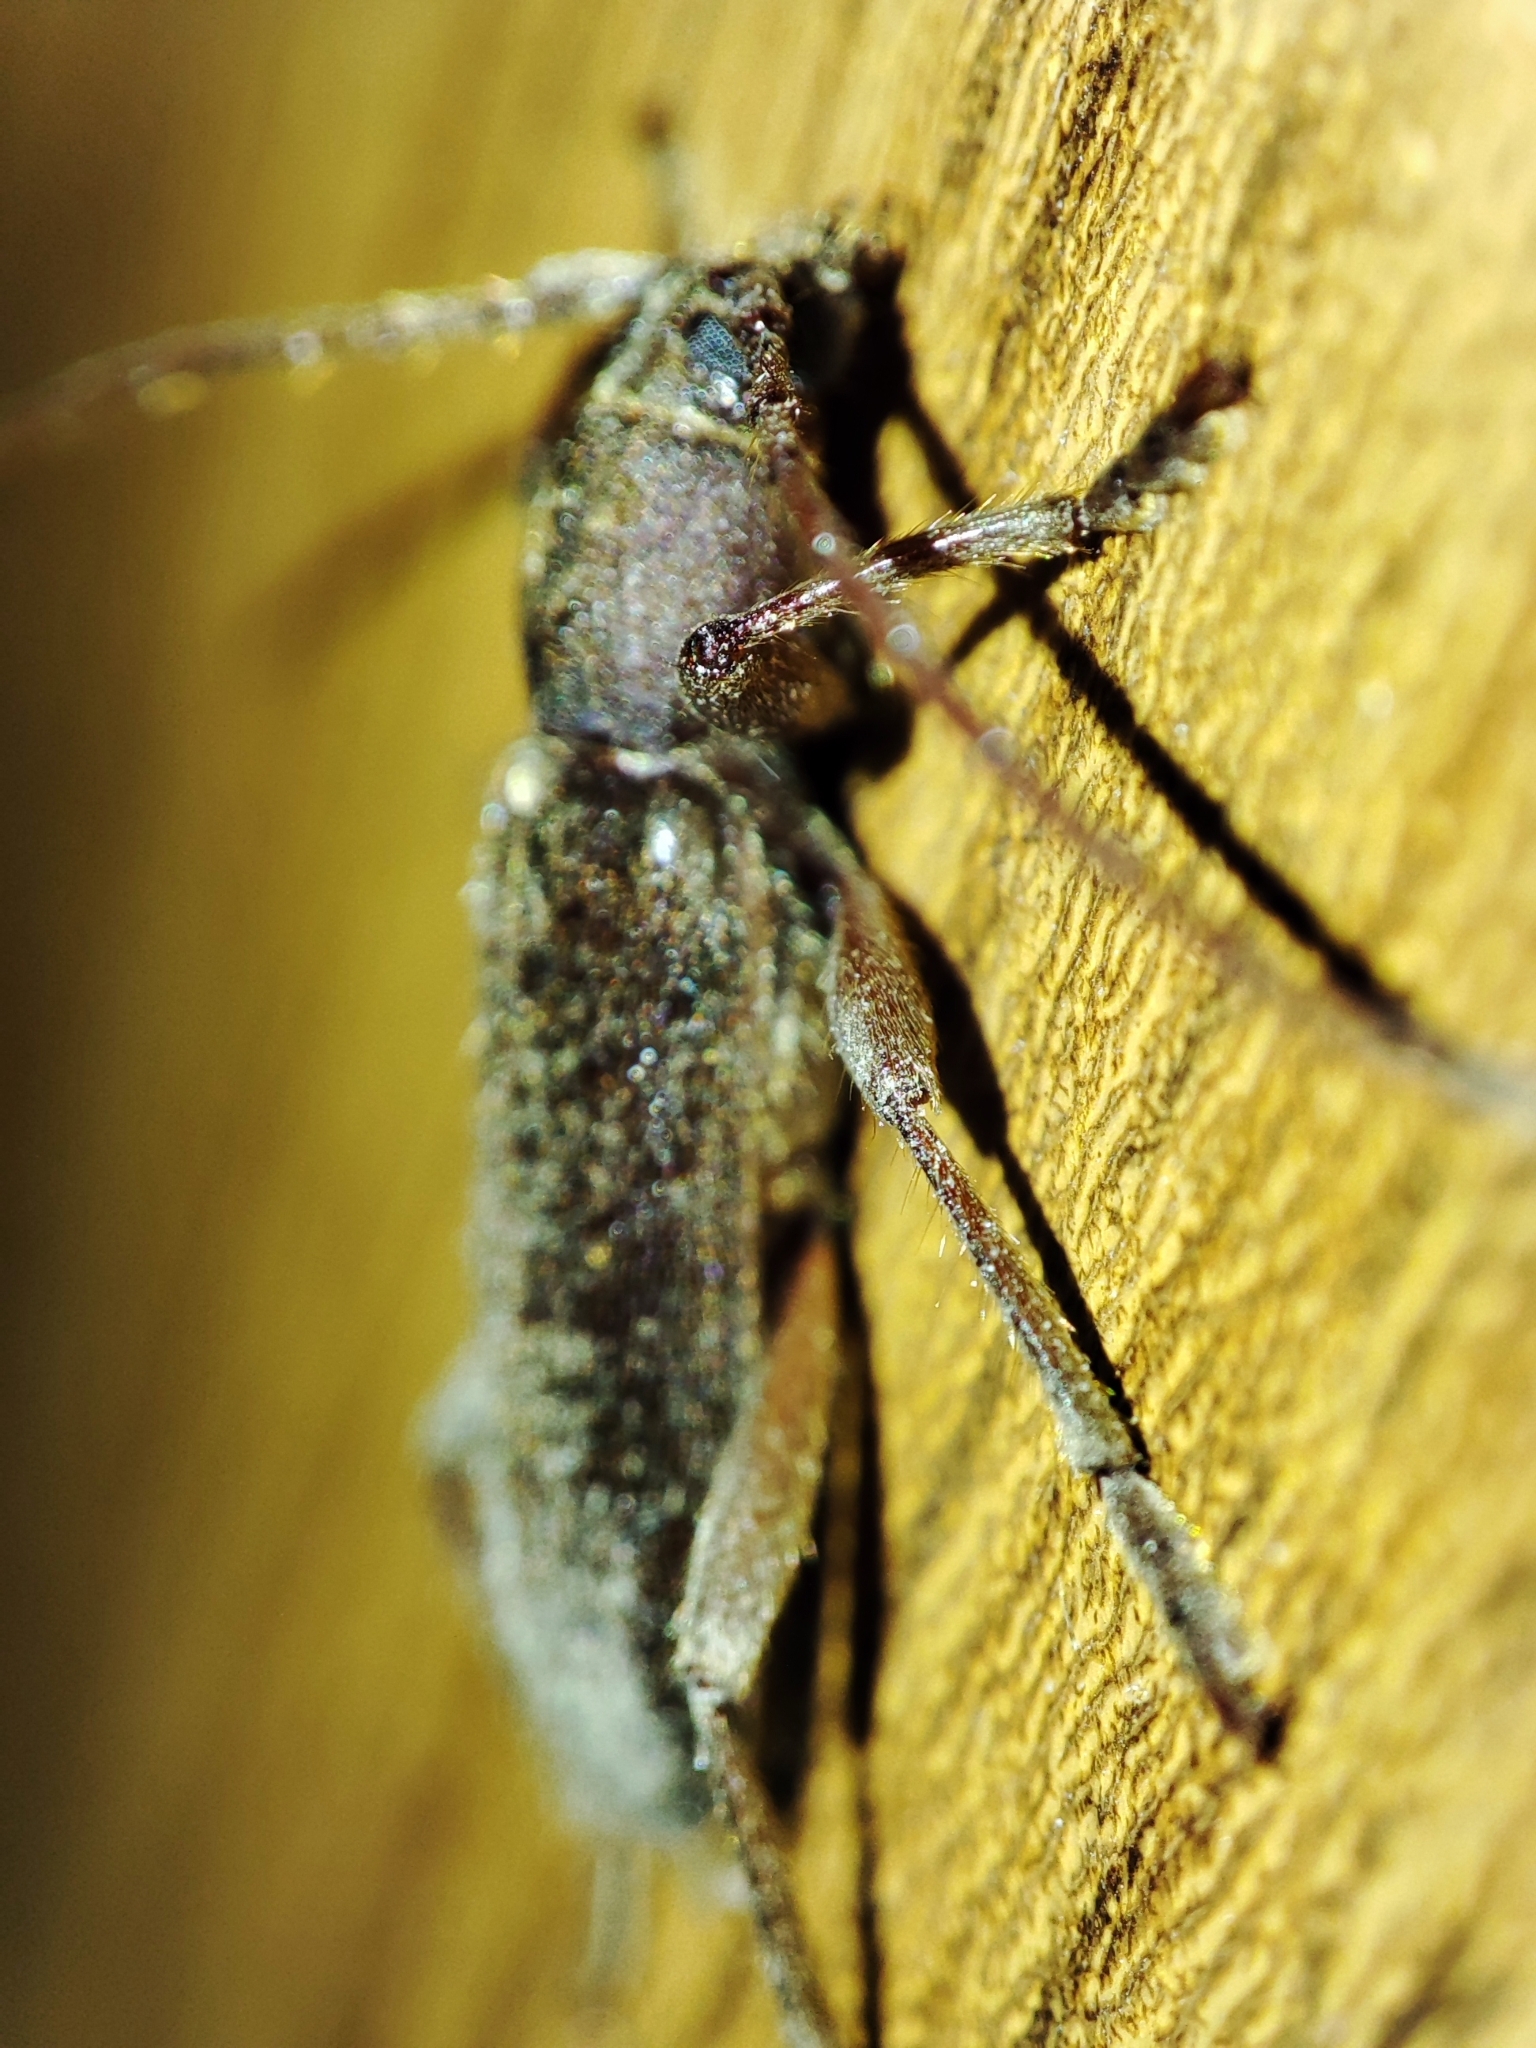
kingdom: Animalia
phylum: Arthropoda
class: Insecta
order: Coleoptera
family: Cerambycidae
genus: Trichoferus
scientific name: Trichoferus campestris
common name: Velvet long horned beetle
